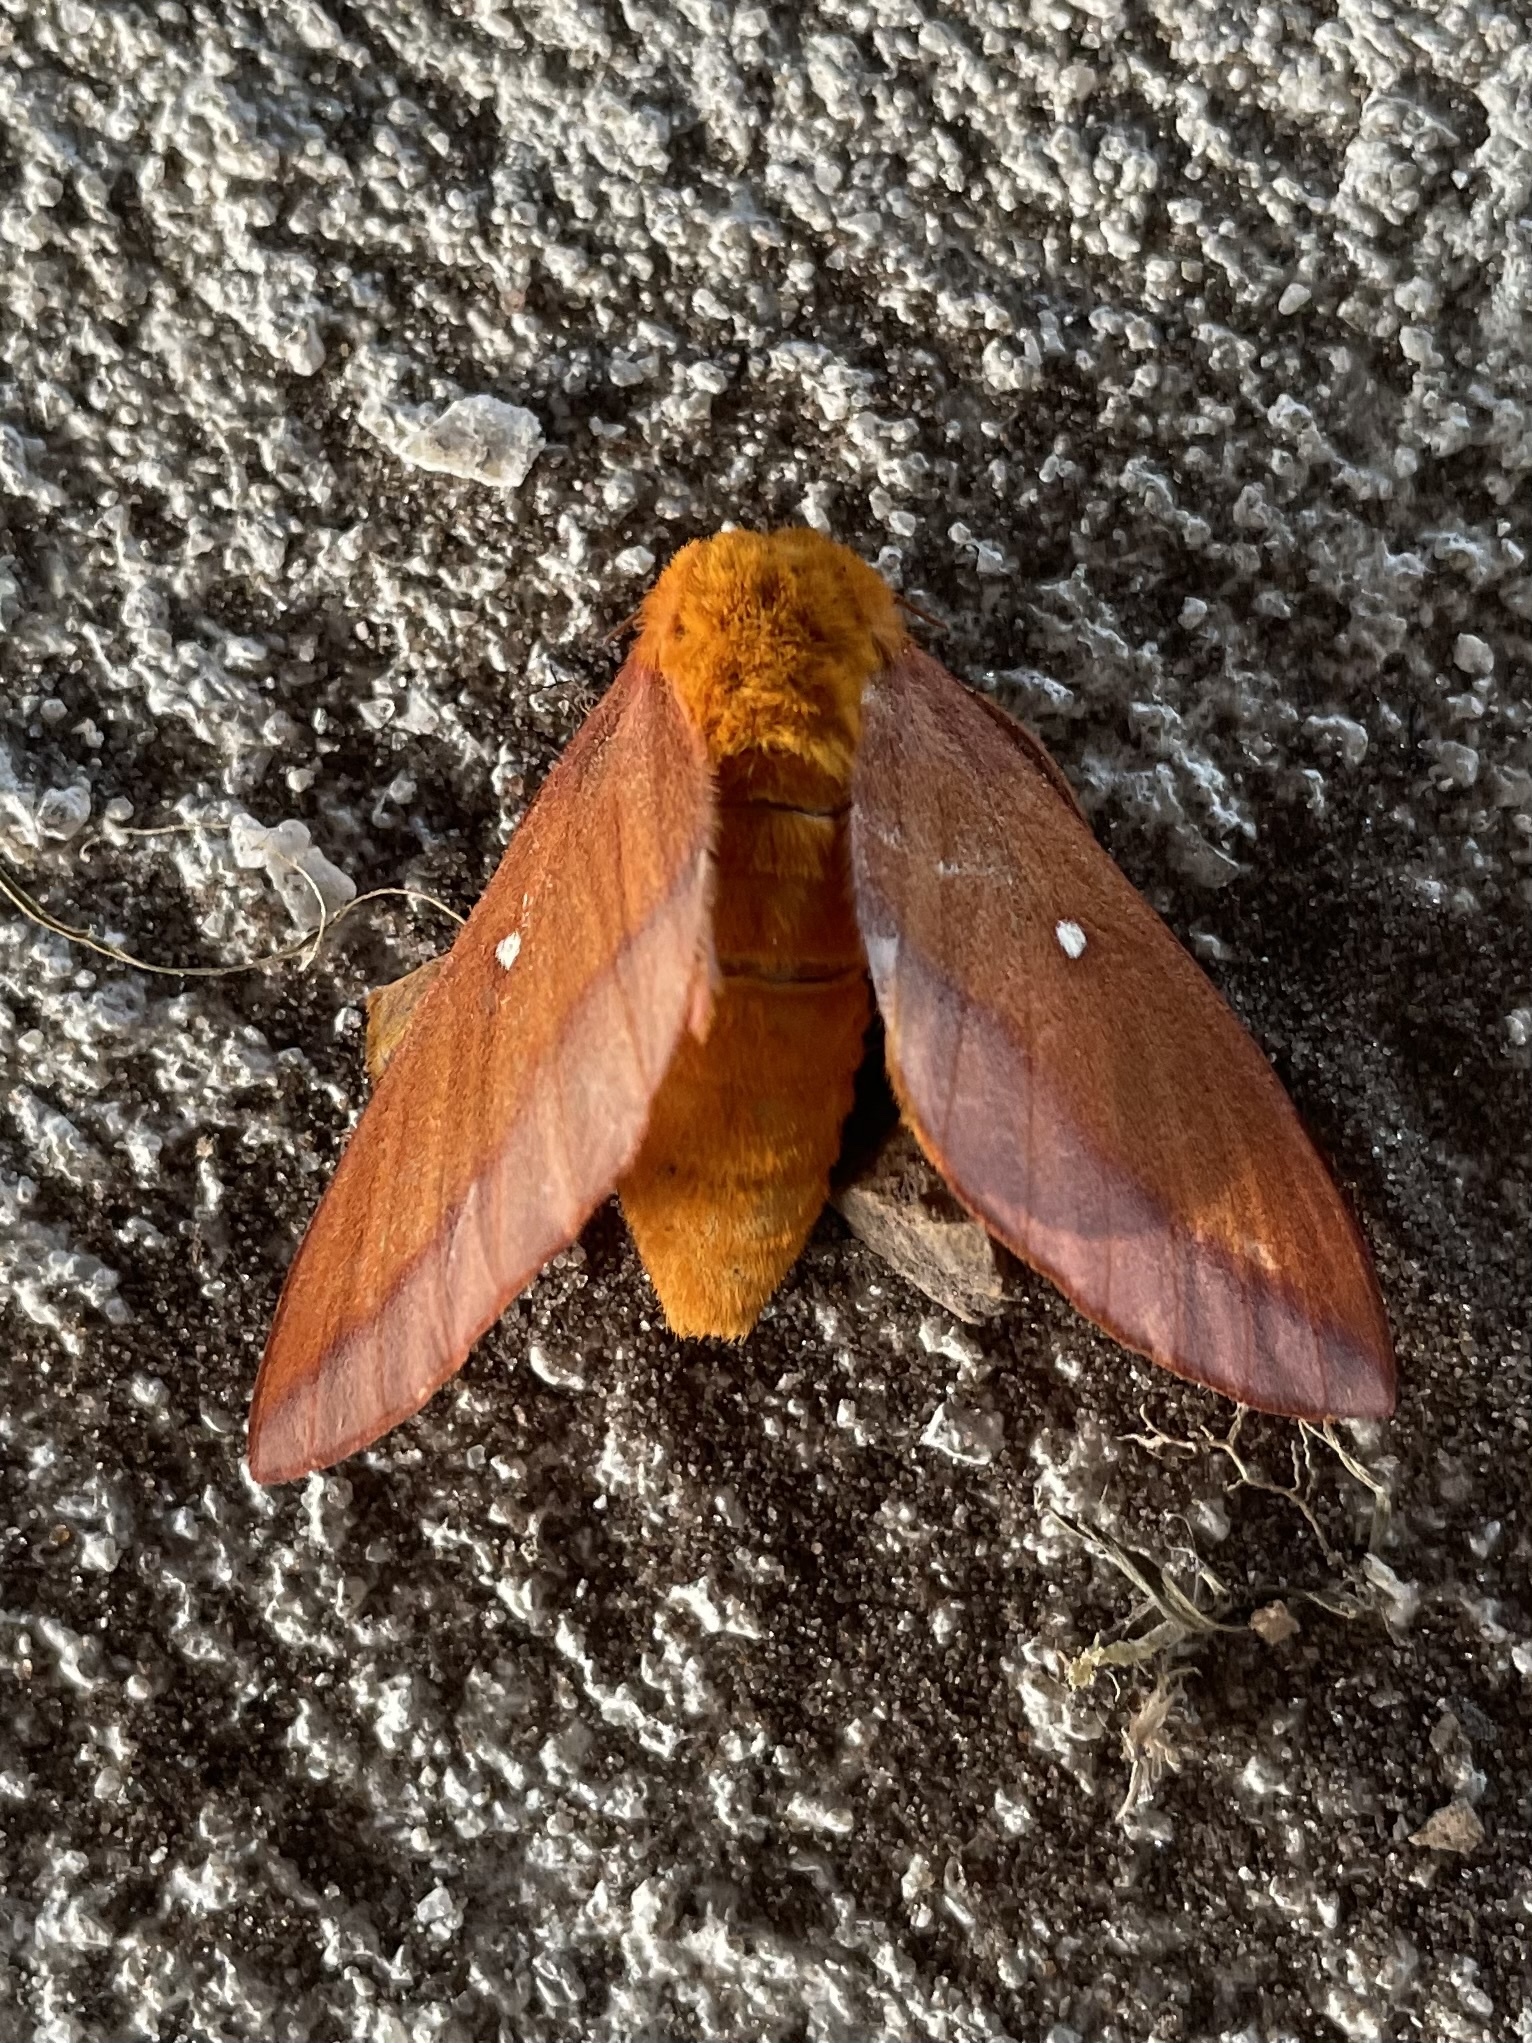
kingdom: Animalia
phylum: Arthropoda
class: Insecta
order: Lepidoptera
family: Saturniidae
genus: Anisota
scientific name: Anisota virginiensis
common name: Pink striped oakworm moth
